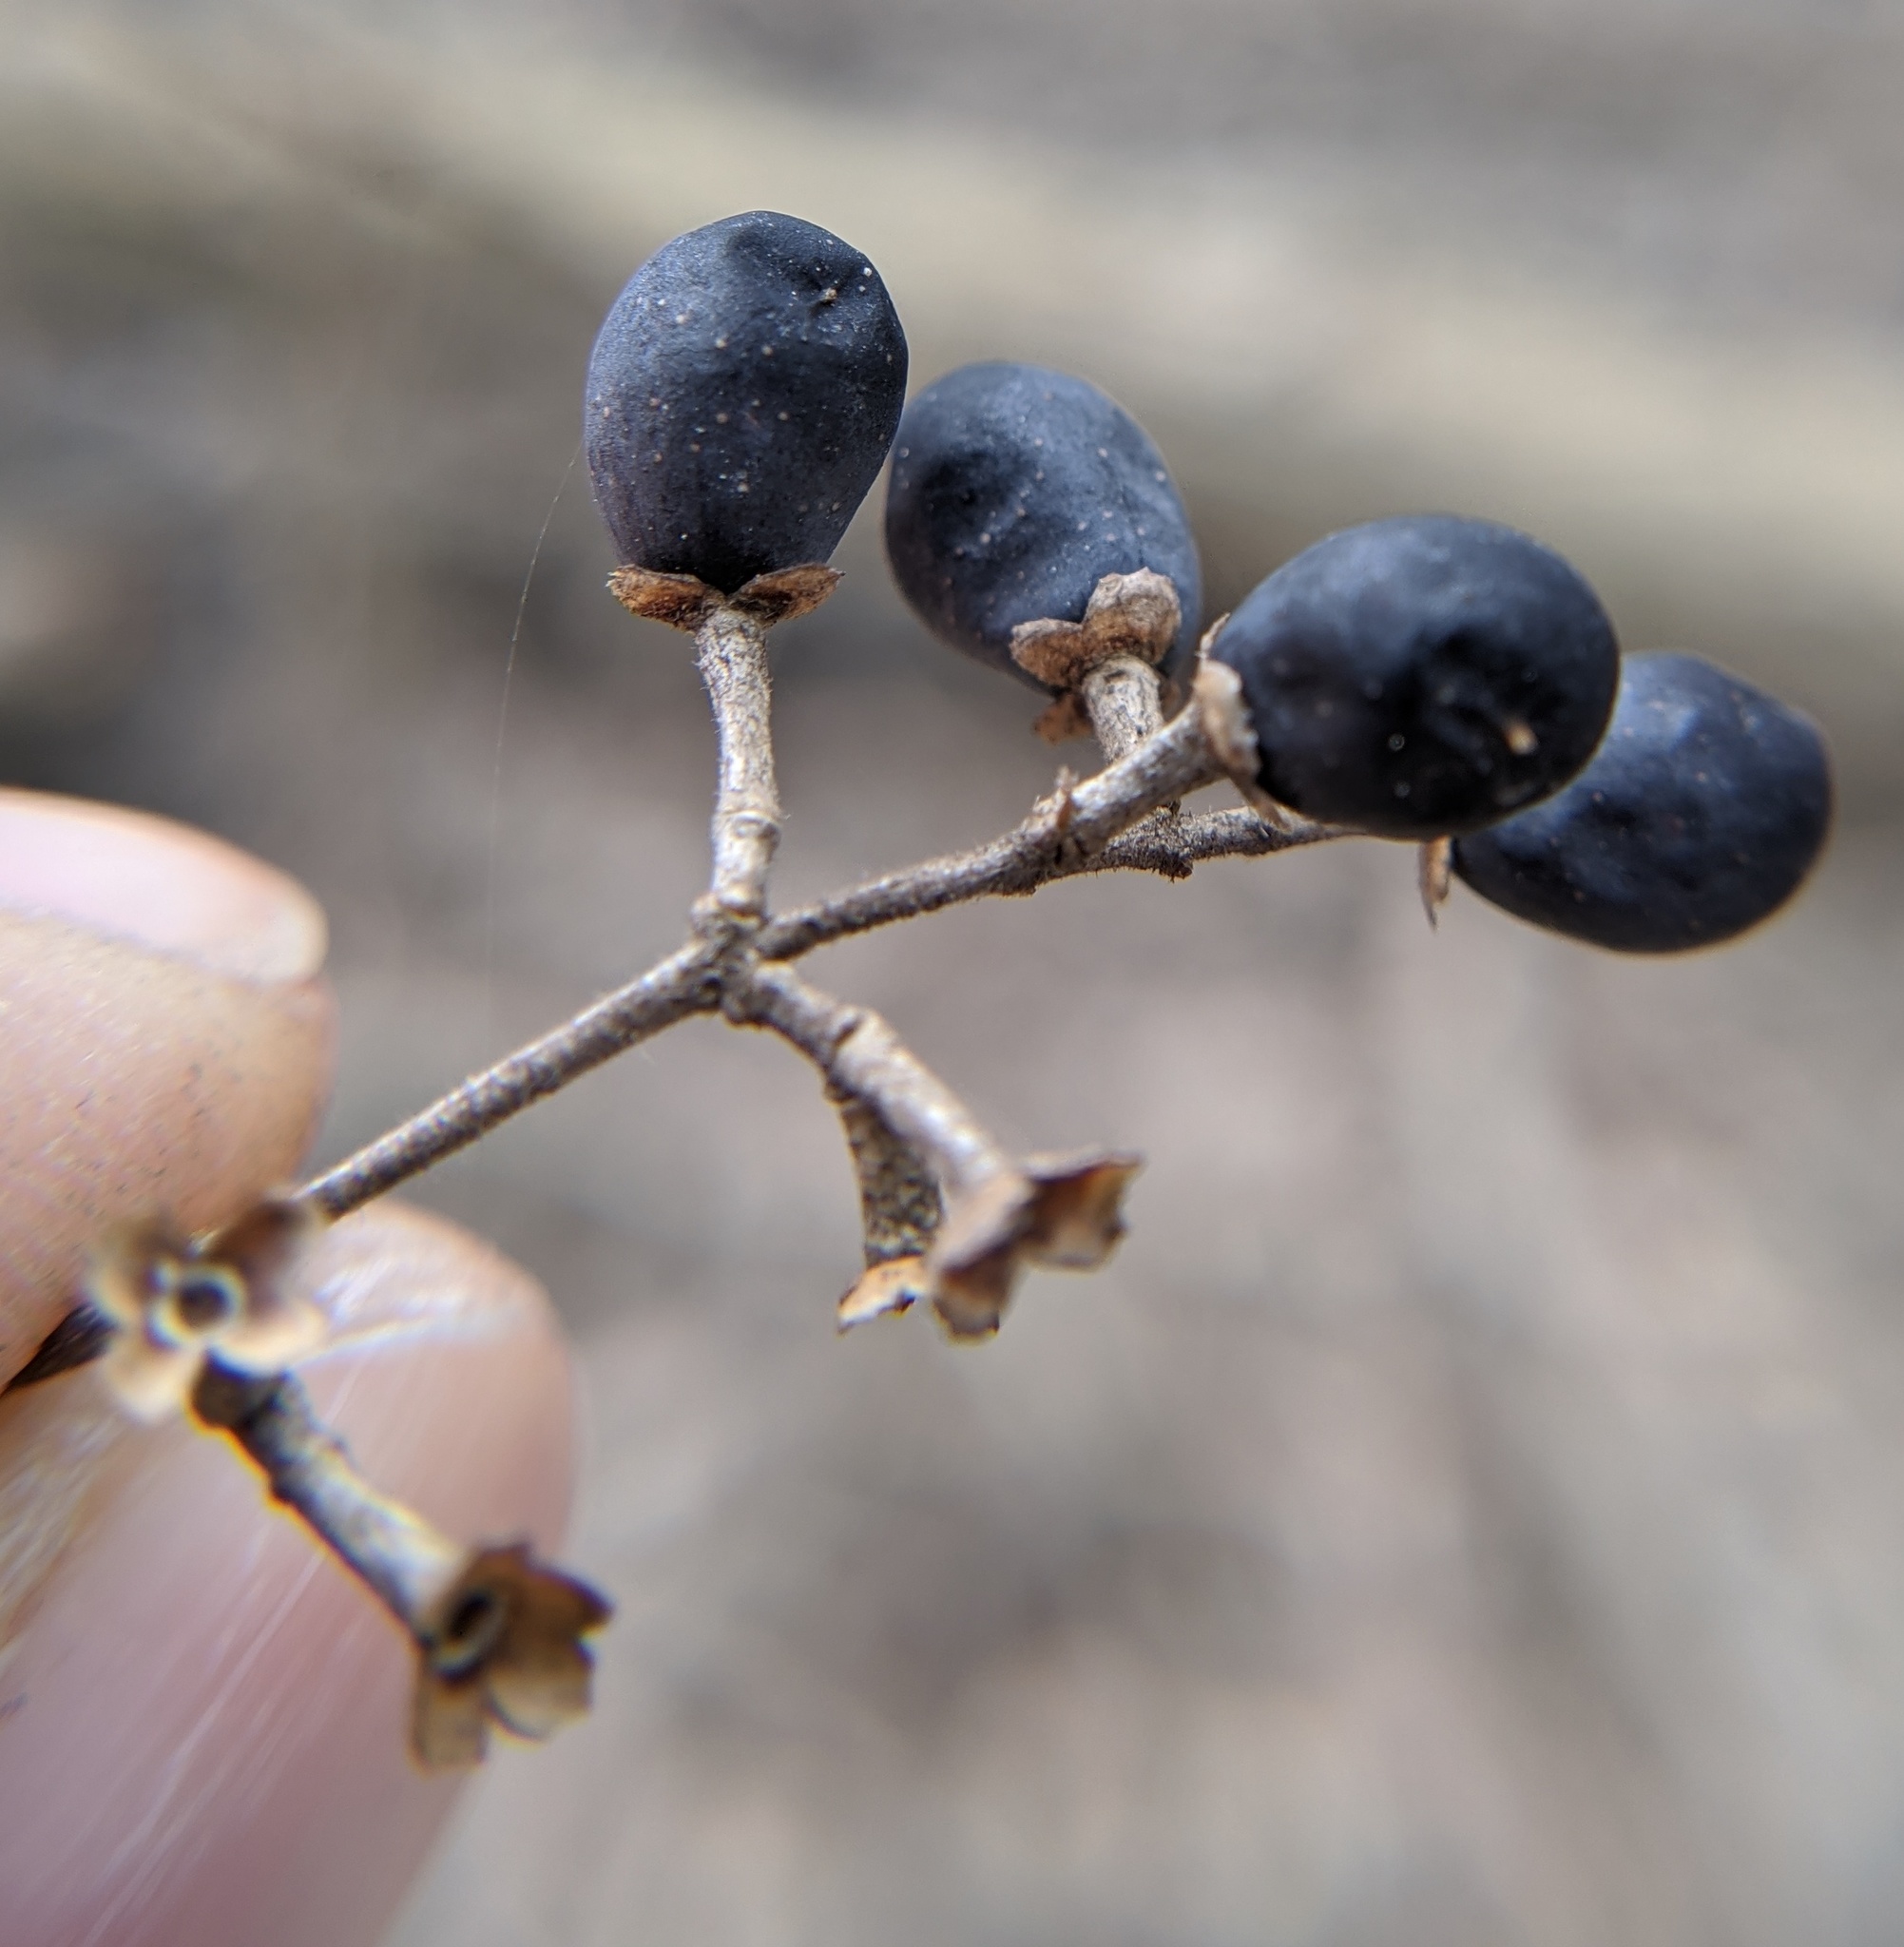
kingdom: Plantae
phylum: Tracheophyta
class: Magnoliopsida
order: Lamiales
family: Oleaceae
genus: Ligustrum
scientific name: Ligustrum obtusifolium
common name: Border privet
